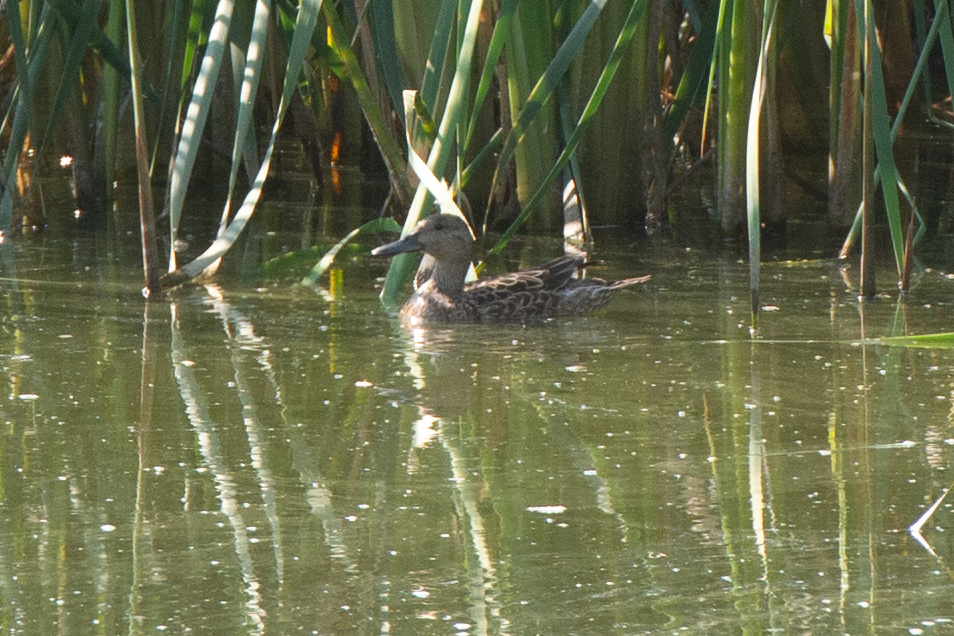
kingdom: Animalia
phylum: Chordata
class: Aves
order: Anseriformes
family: Anatidae
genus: Spatula
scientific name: Spatula cyanoptera
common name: Cinnamon teal
